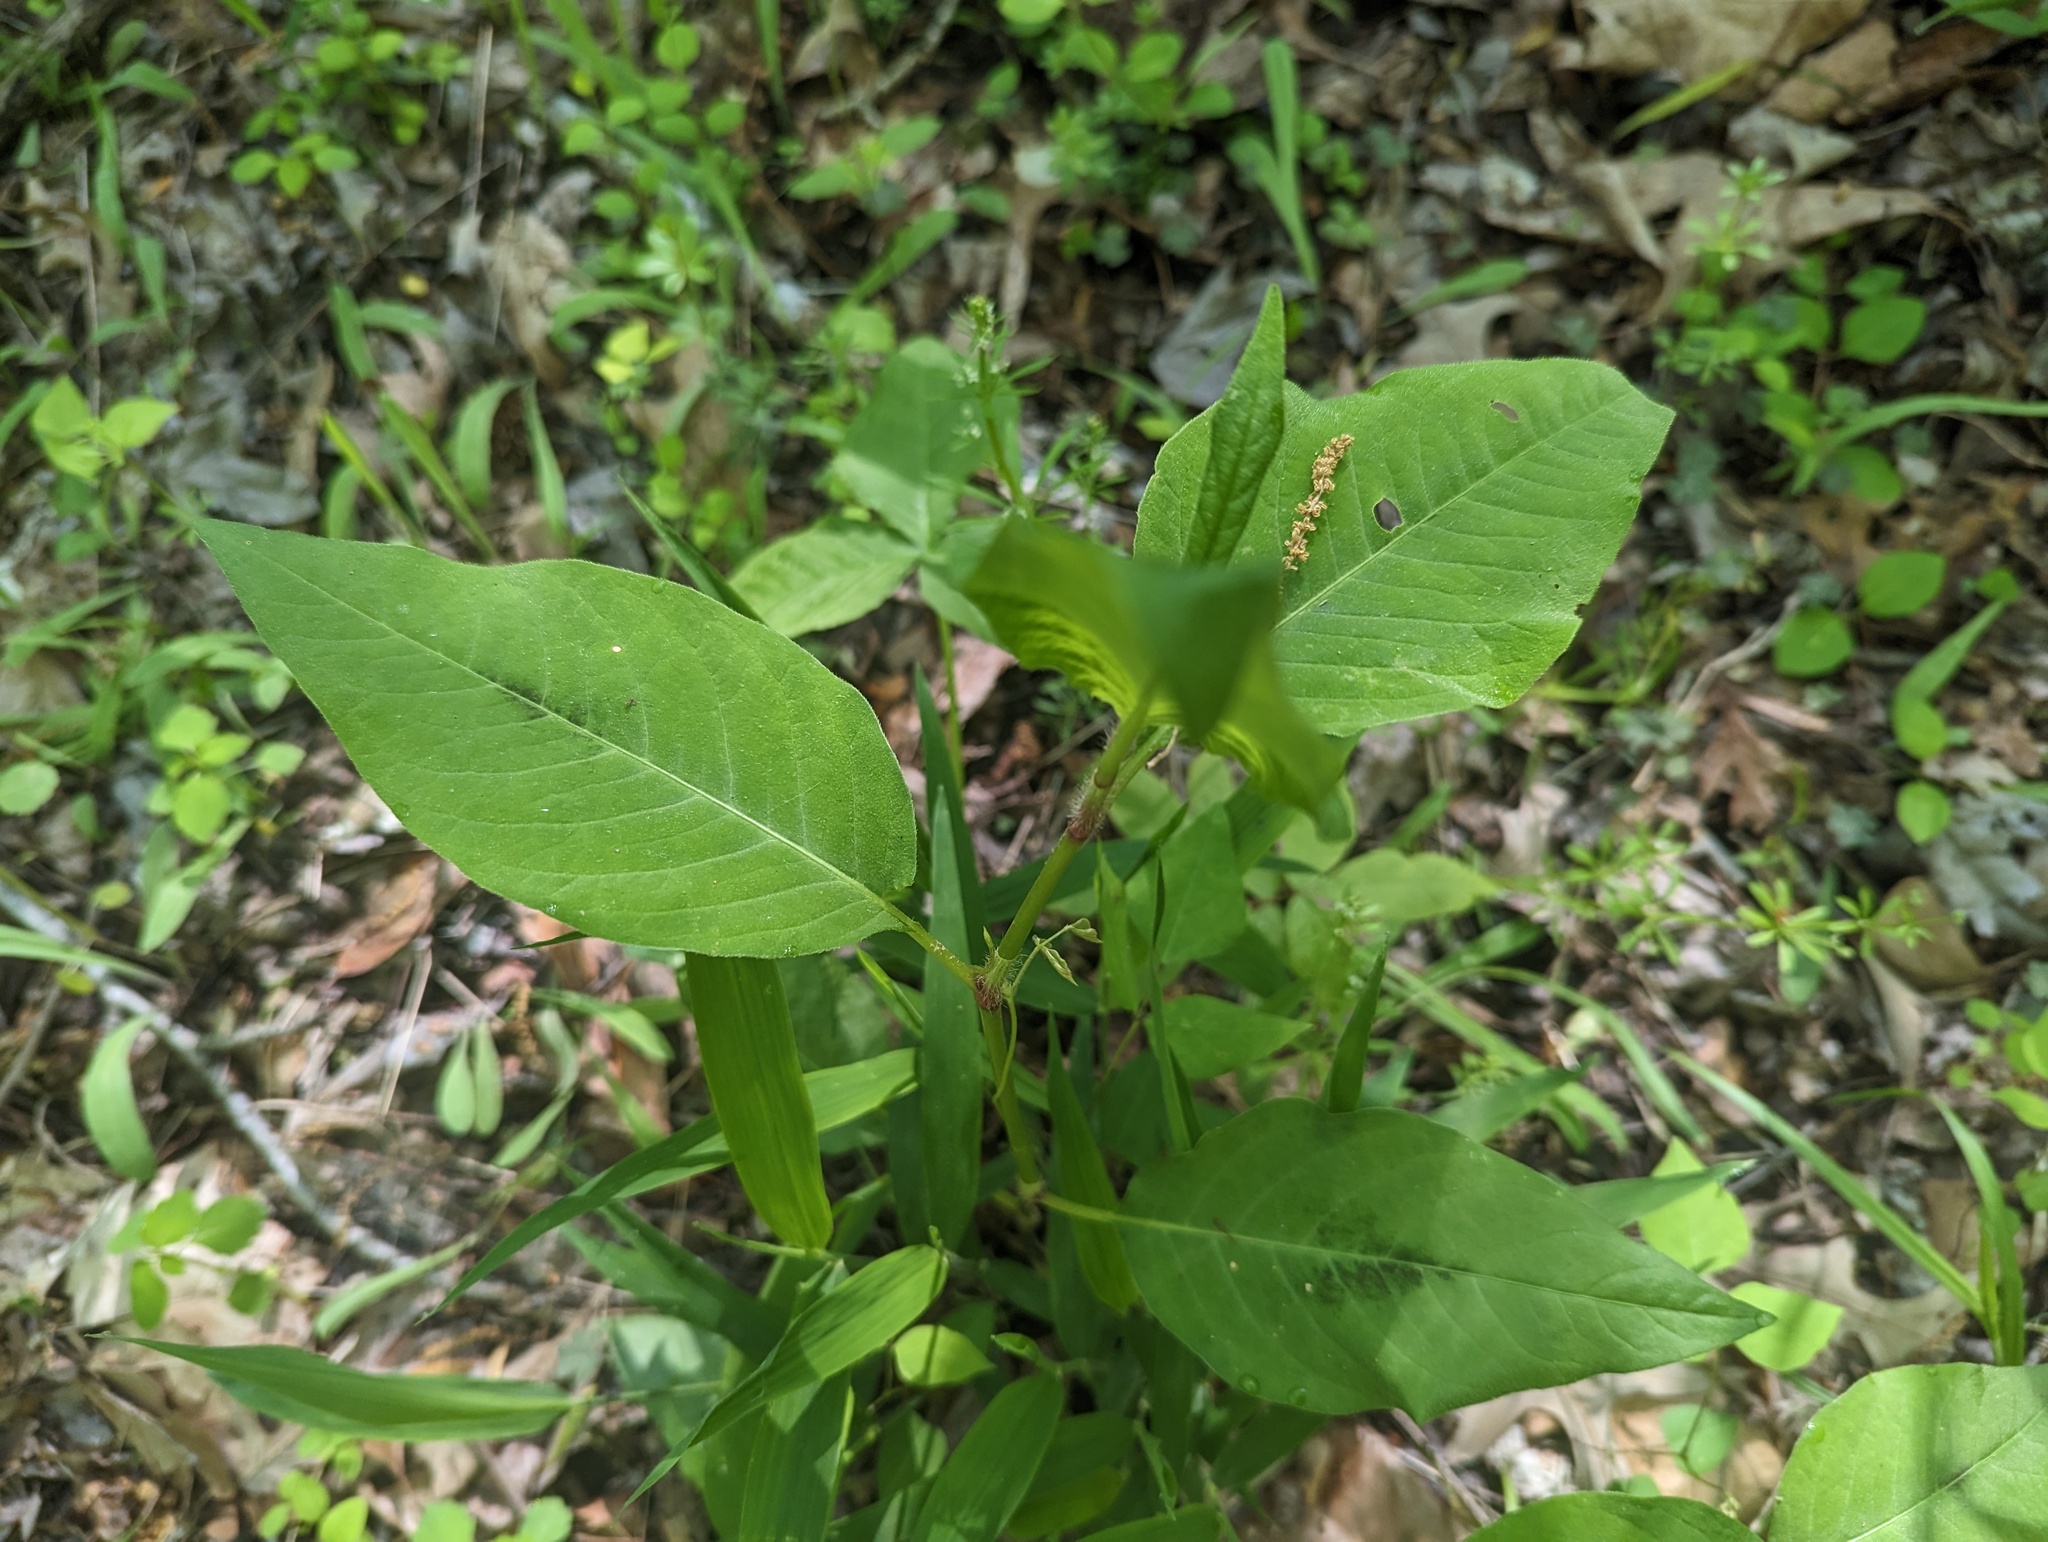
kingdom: Plantae
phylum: Tracheophyta
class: Magnoliopsida
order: Caryophyllales
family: Polygonaceae
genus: Persicaria
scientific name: Persicaria virginiana
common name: Jumpseed
